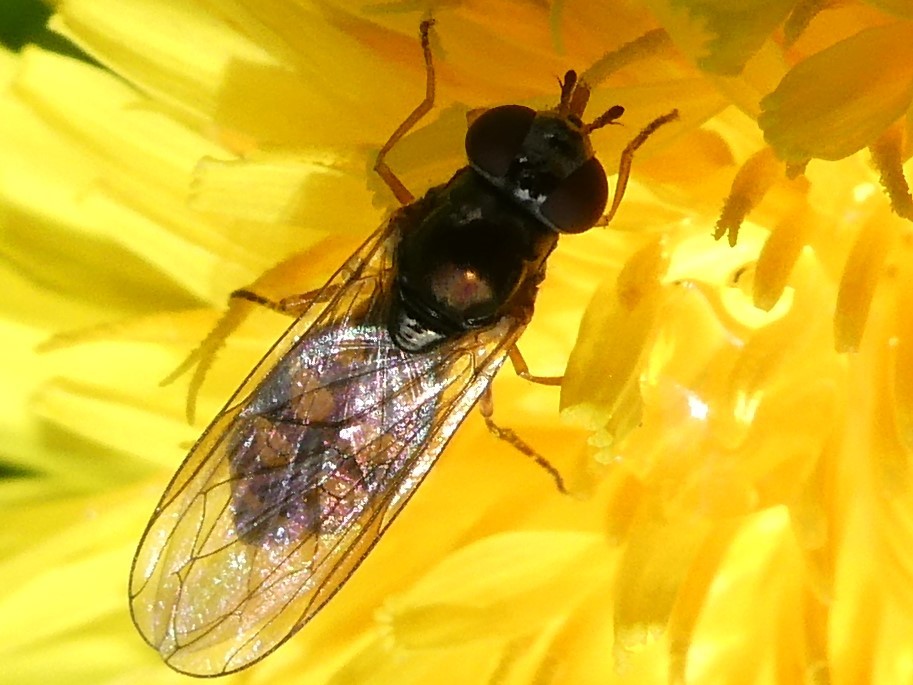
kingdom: Animalia
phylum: Arthropoda
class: Insecta
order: Diptera
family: Syrphidae
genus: Melanostoma
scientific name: Melanostoma mellina
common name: Hover fly
